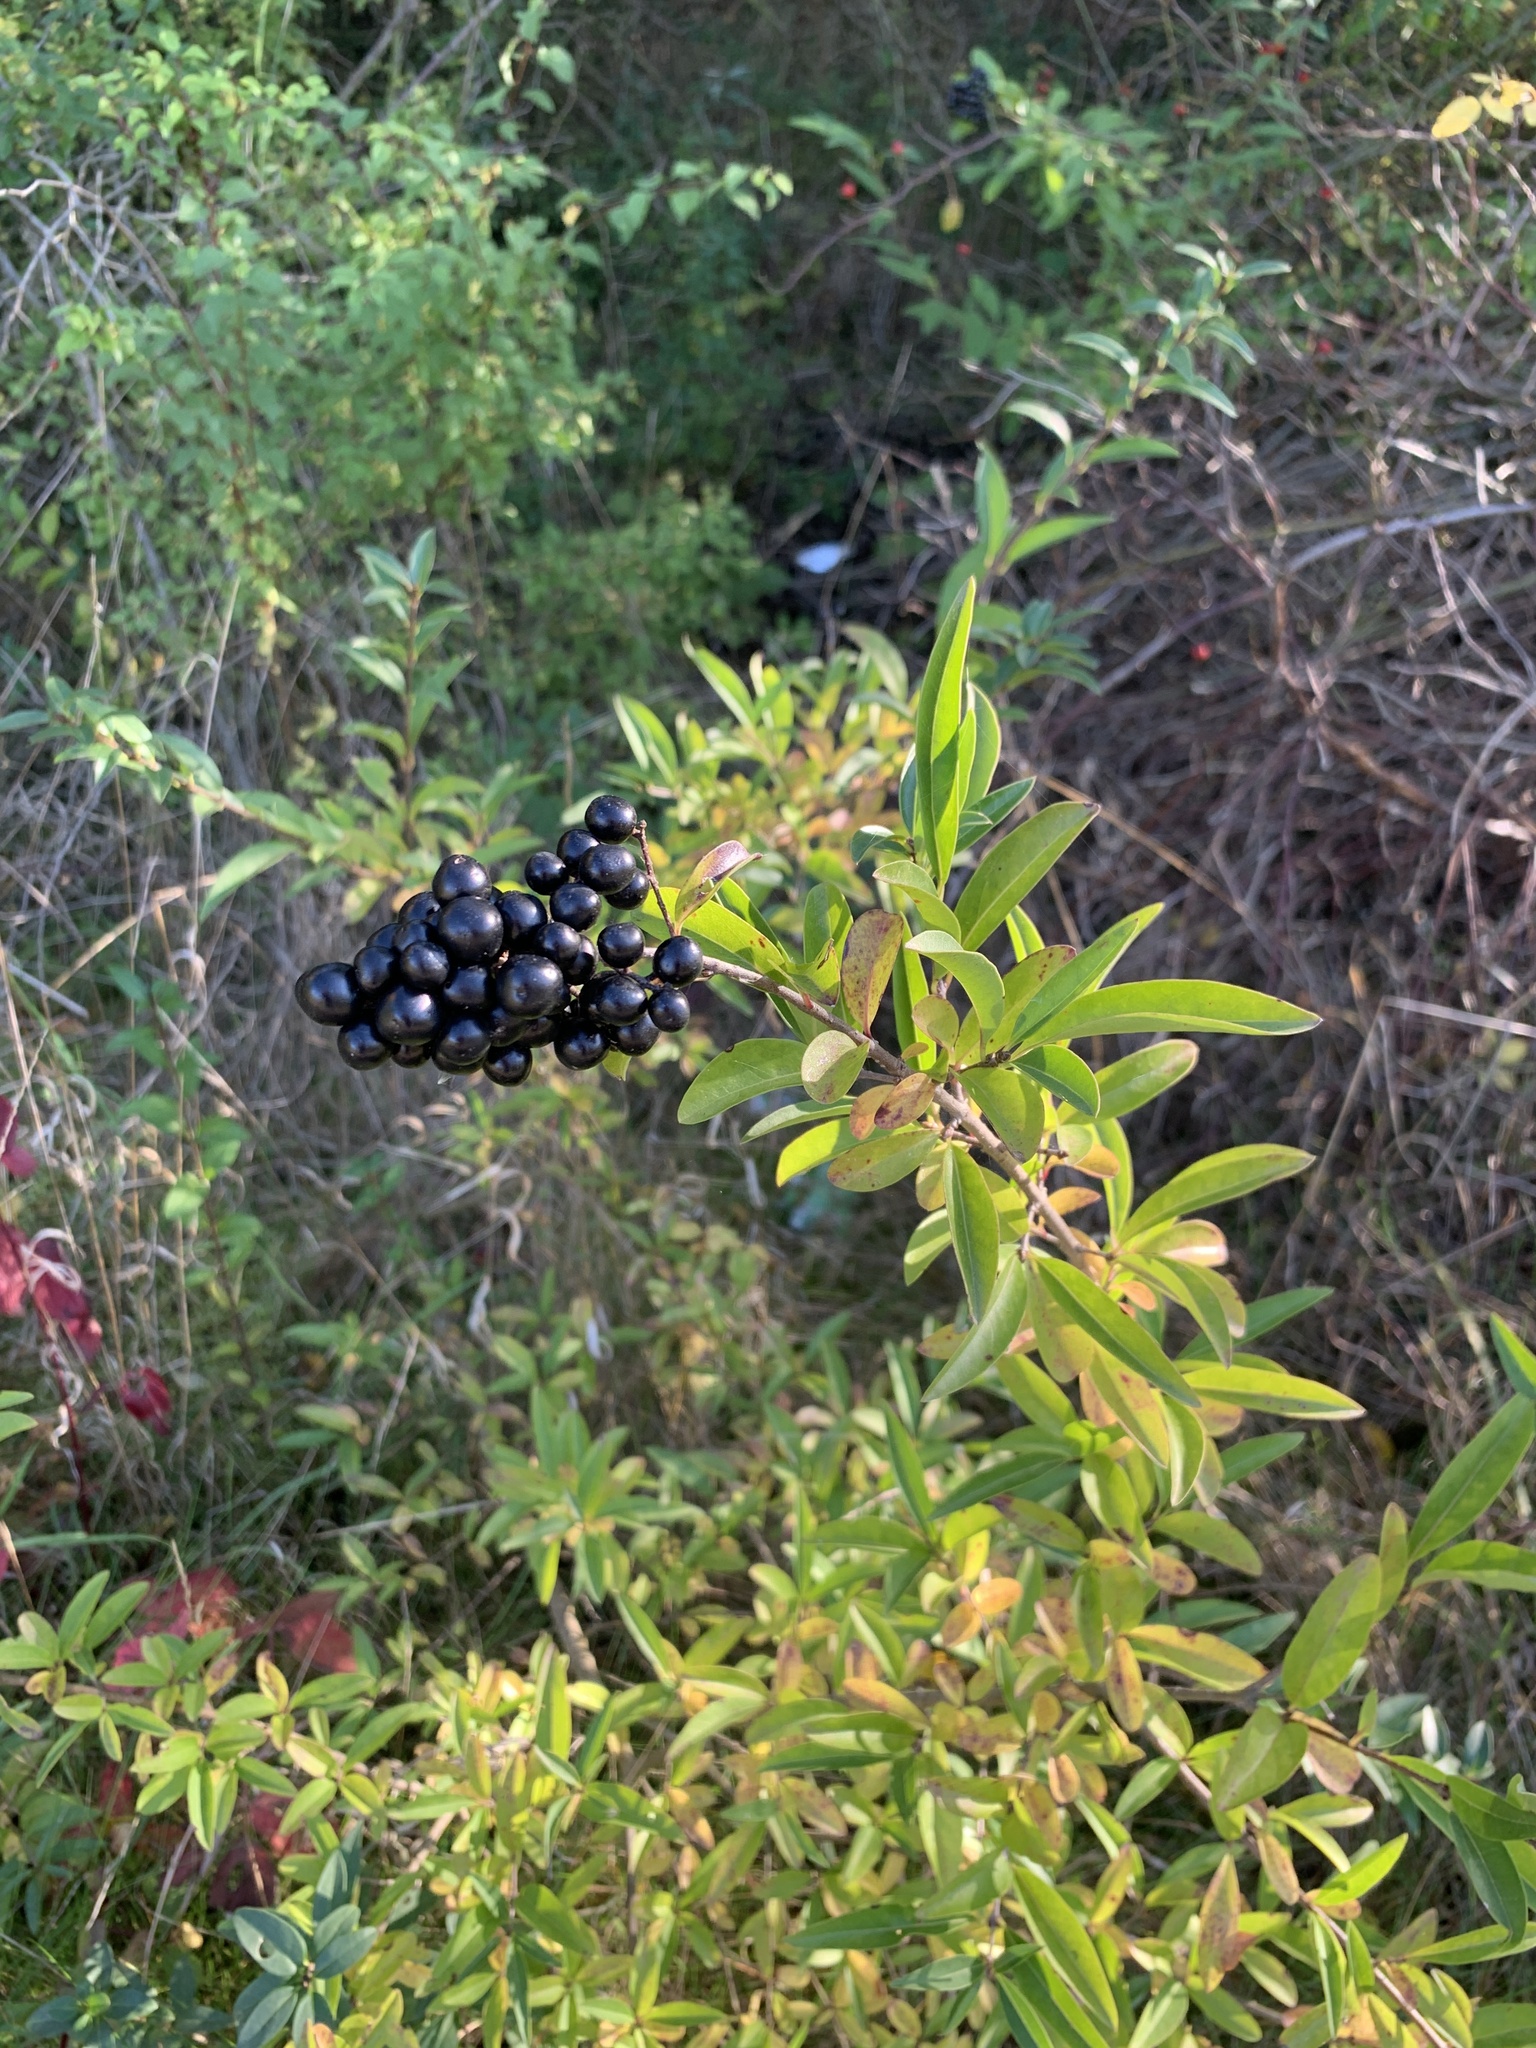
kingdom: Plantae
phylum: Tracheophyta
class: Magnoliopsida
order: Lamiales
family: Oleaceae
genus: Ligustrum
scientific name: Ligustrum vulgare
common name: Wild privet
